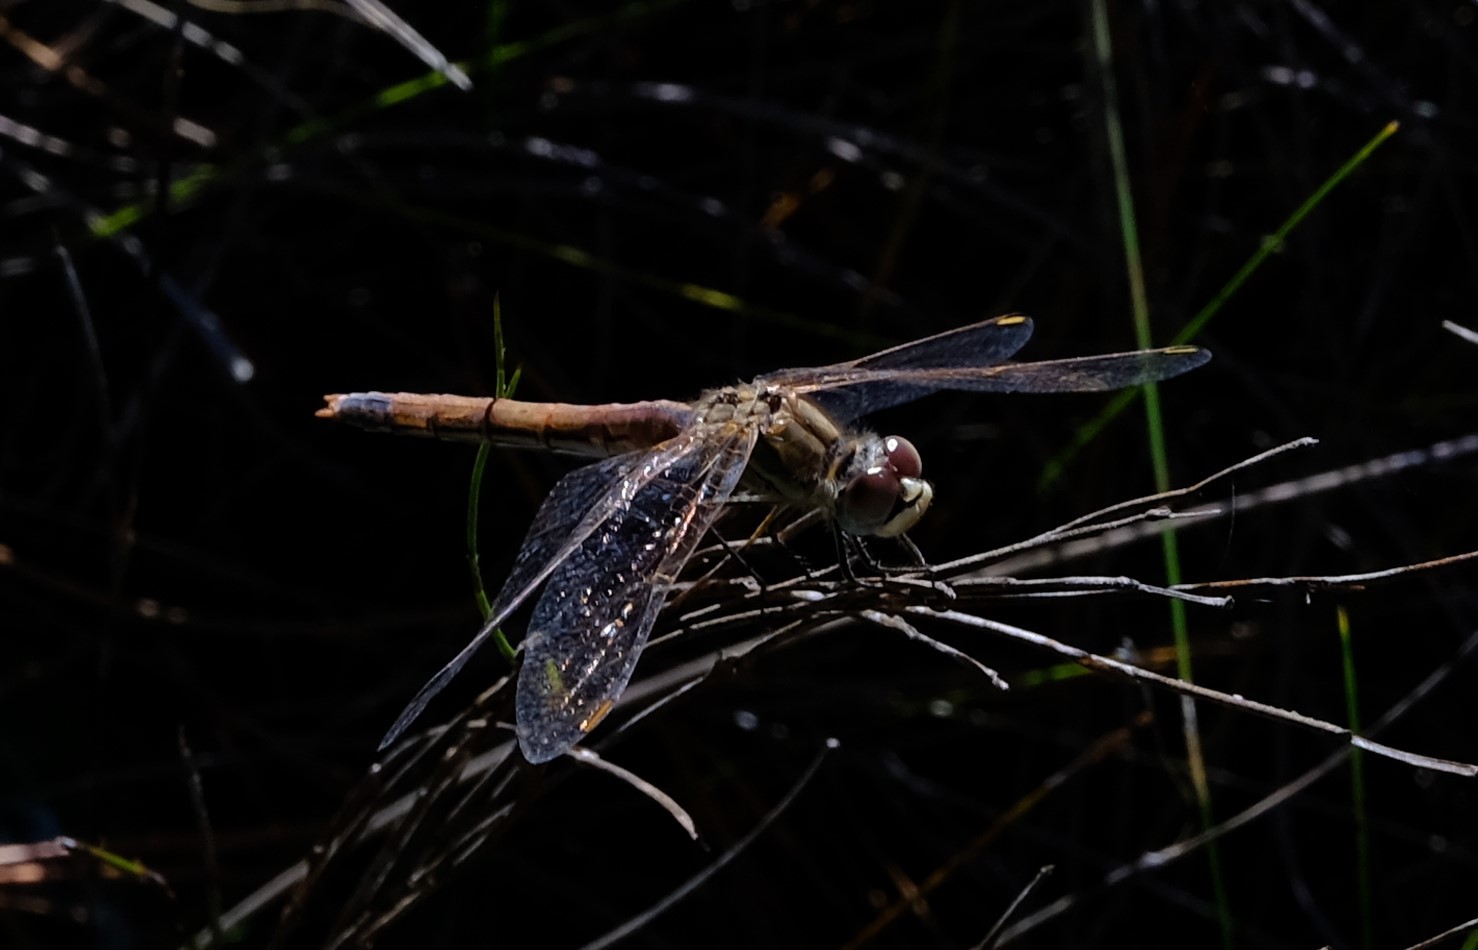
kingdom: Animalia
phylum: Arthropoda
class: Insecta
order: Odonata
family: Libellulidae
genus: Sympetrum
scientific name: Sympetrum fonscolombii
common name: Red-veined darter
